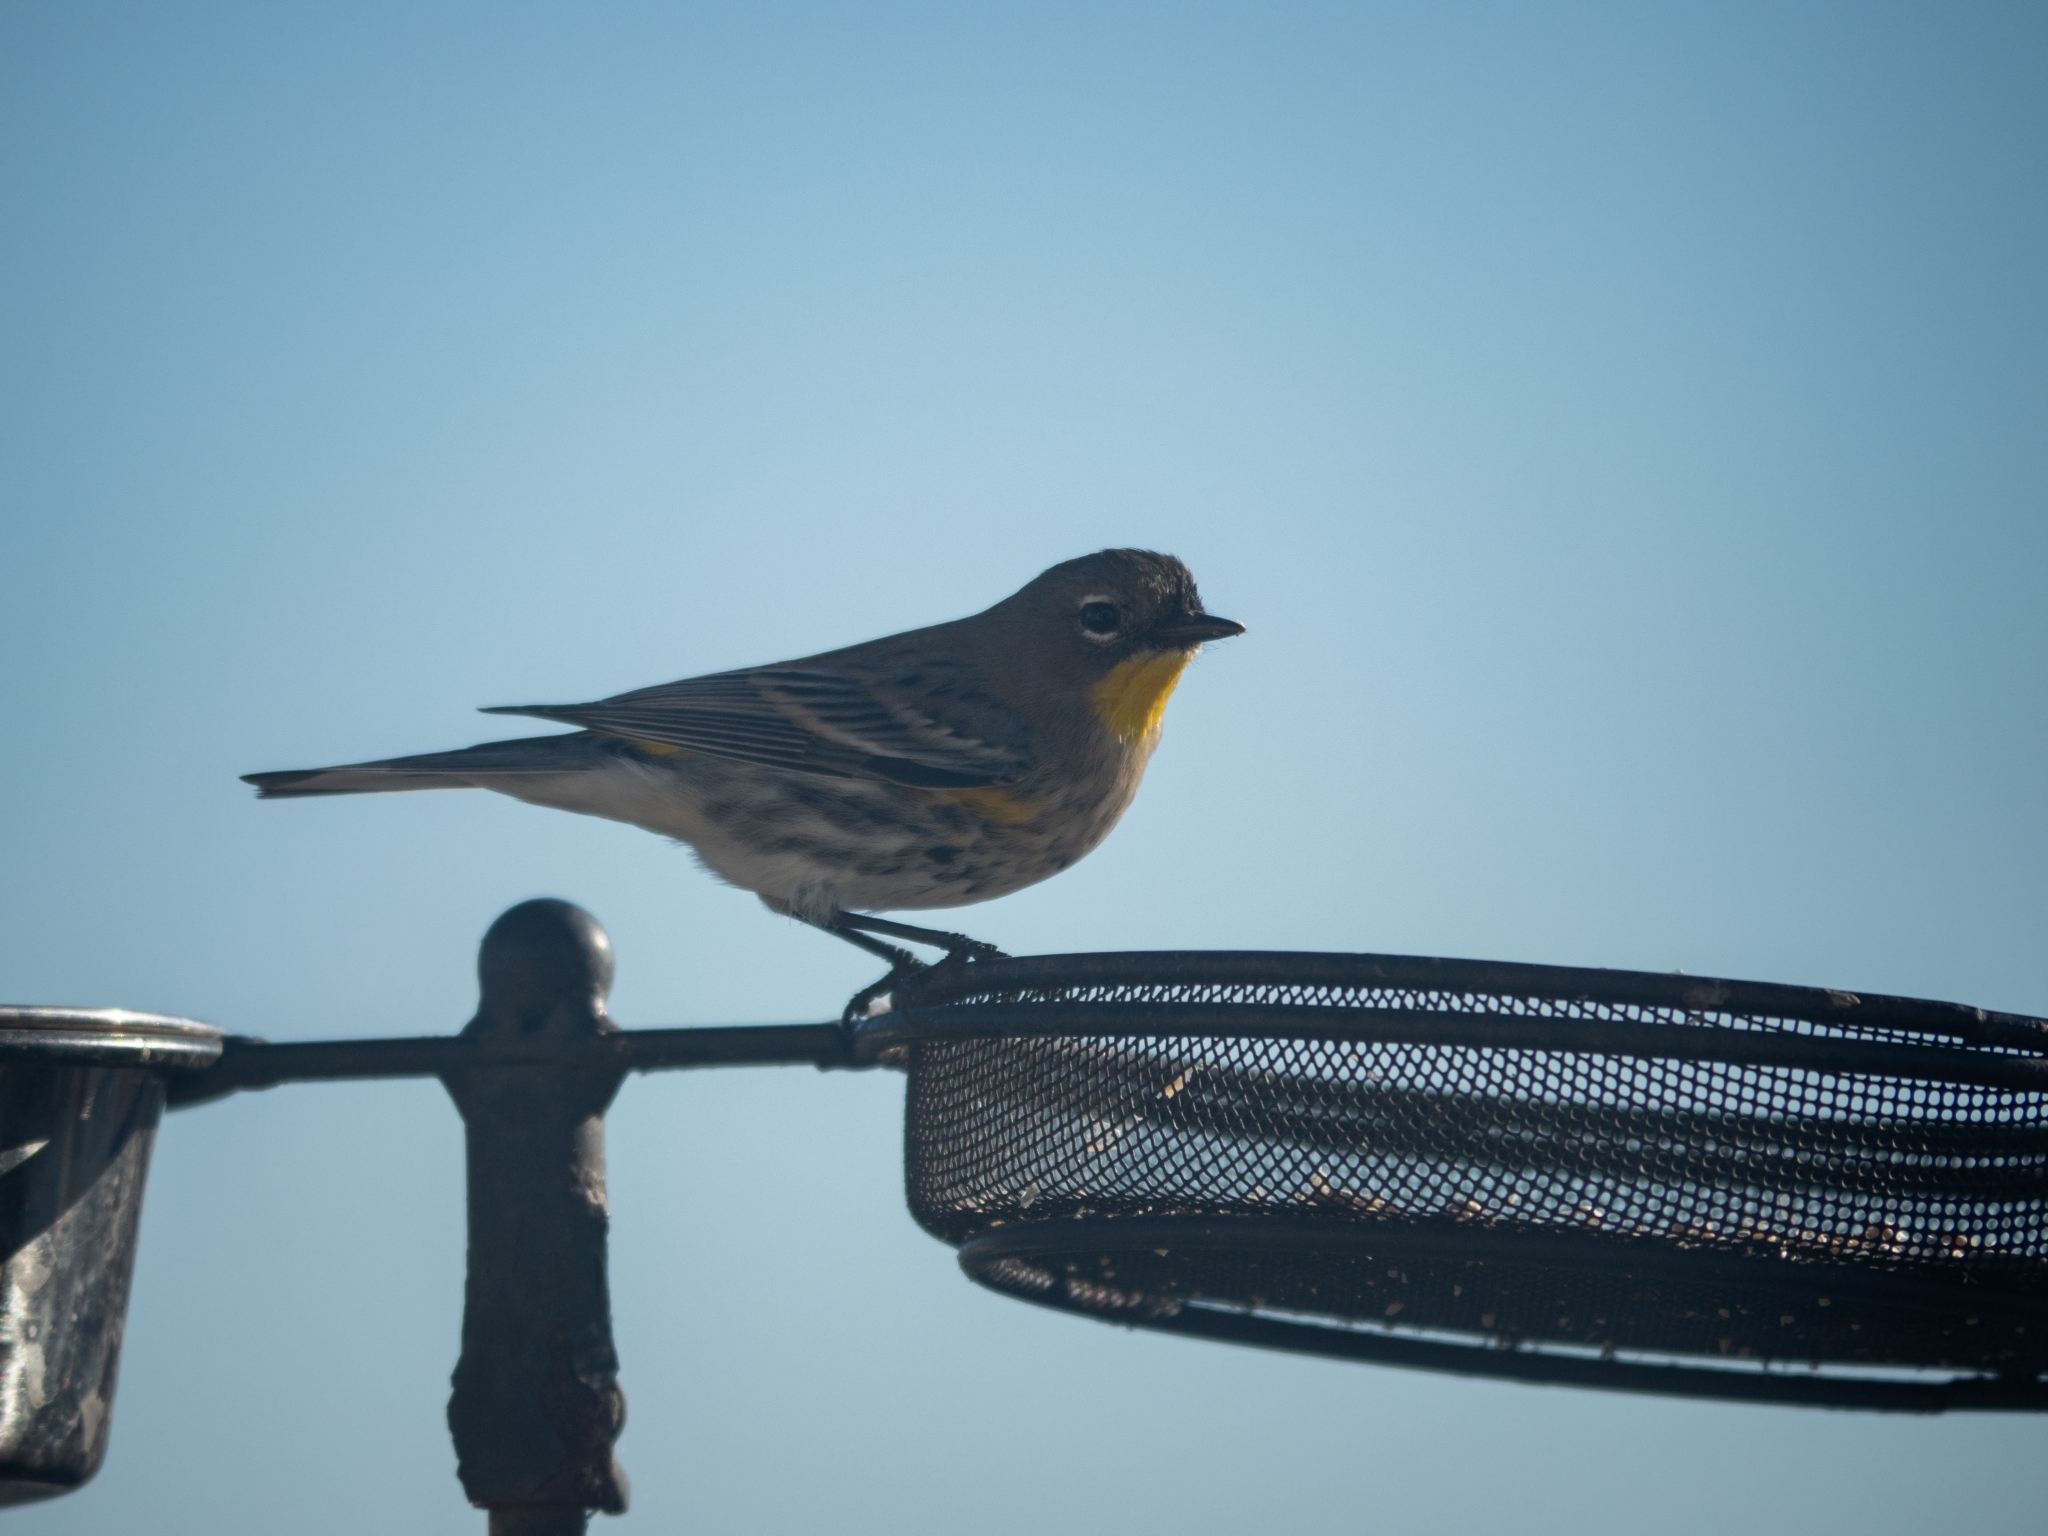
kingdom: Animalia
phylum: Chordata
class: Aves
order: Passeriformes
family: Parulidae
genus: Setophaga
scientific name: Setophaga coronata
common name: Myrtle warbler
